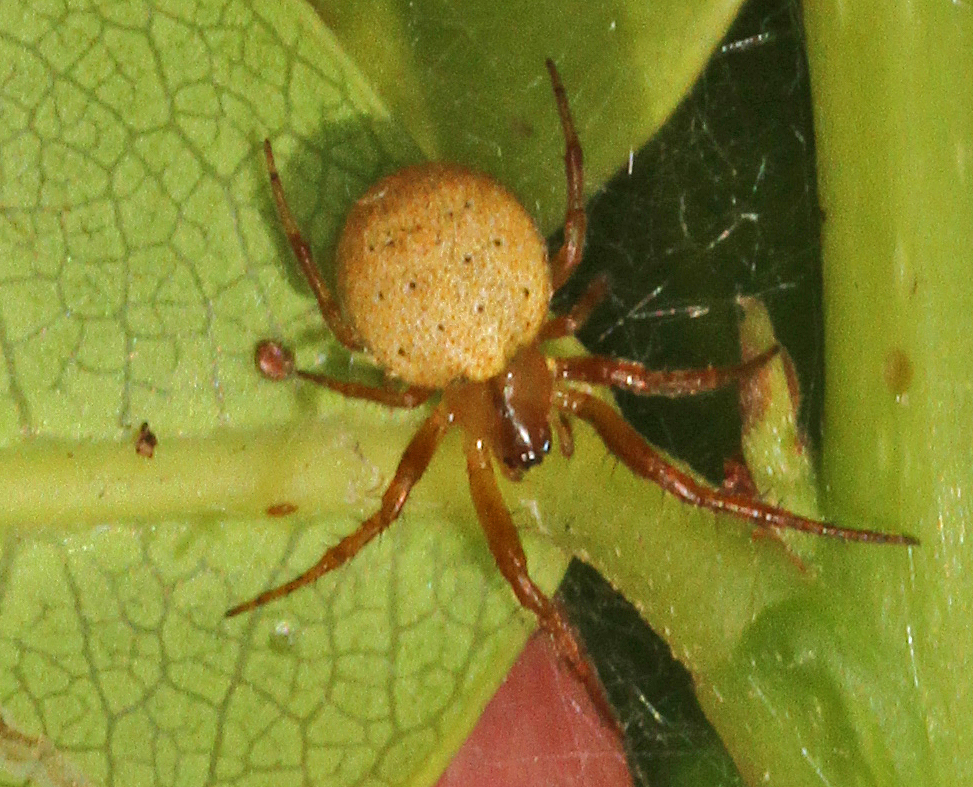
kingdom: Animalia
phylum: Arthropoda
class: Arachnida
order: Araneae
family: Araneidae
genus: Metazygia
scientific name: Metazygia zilloides
